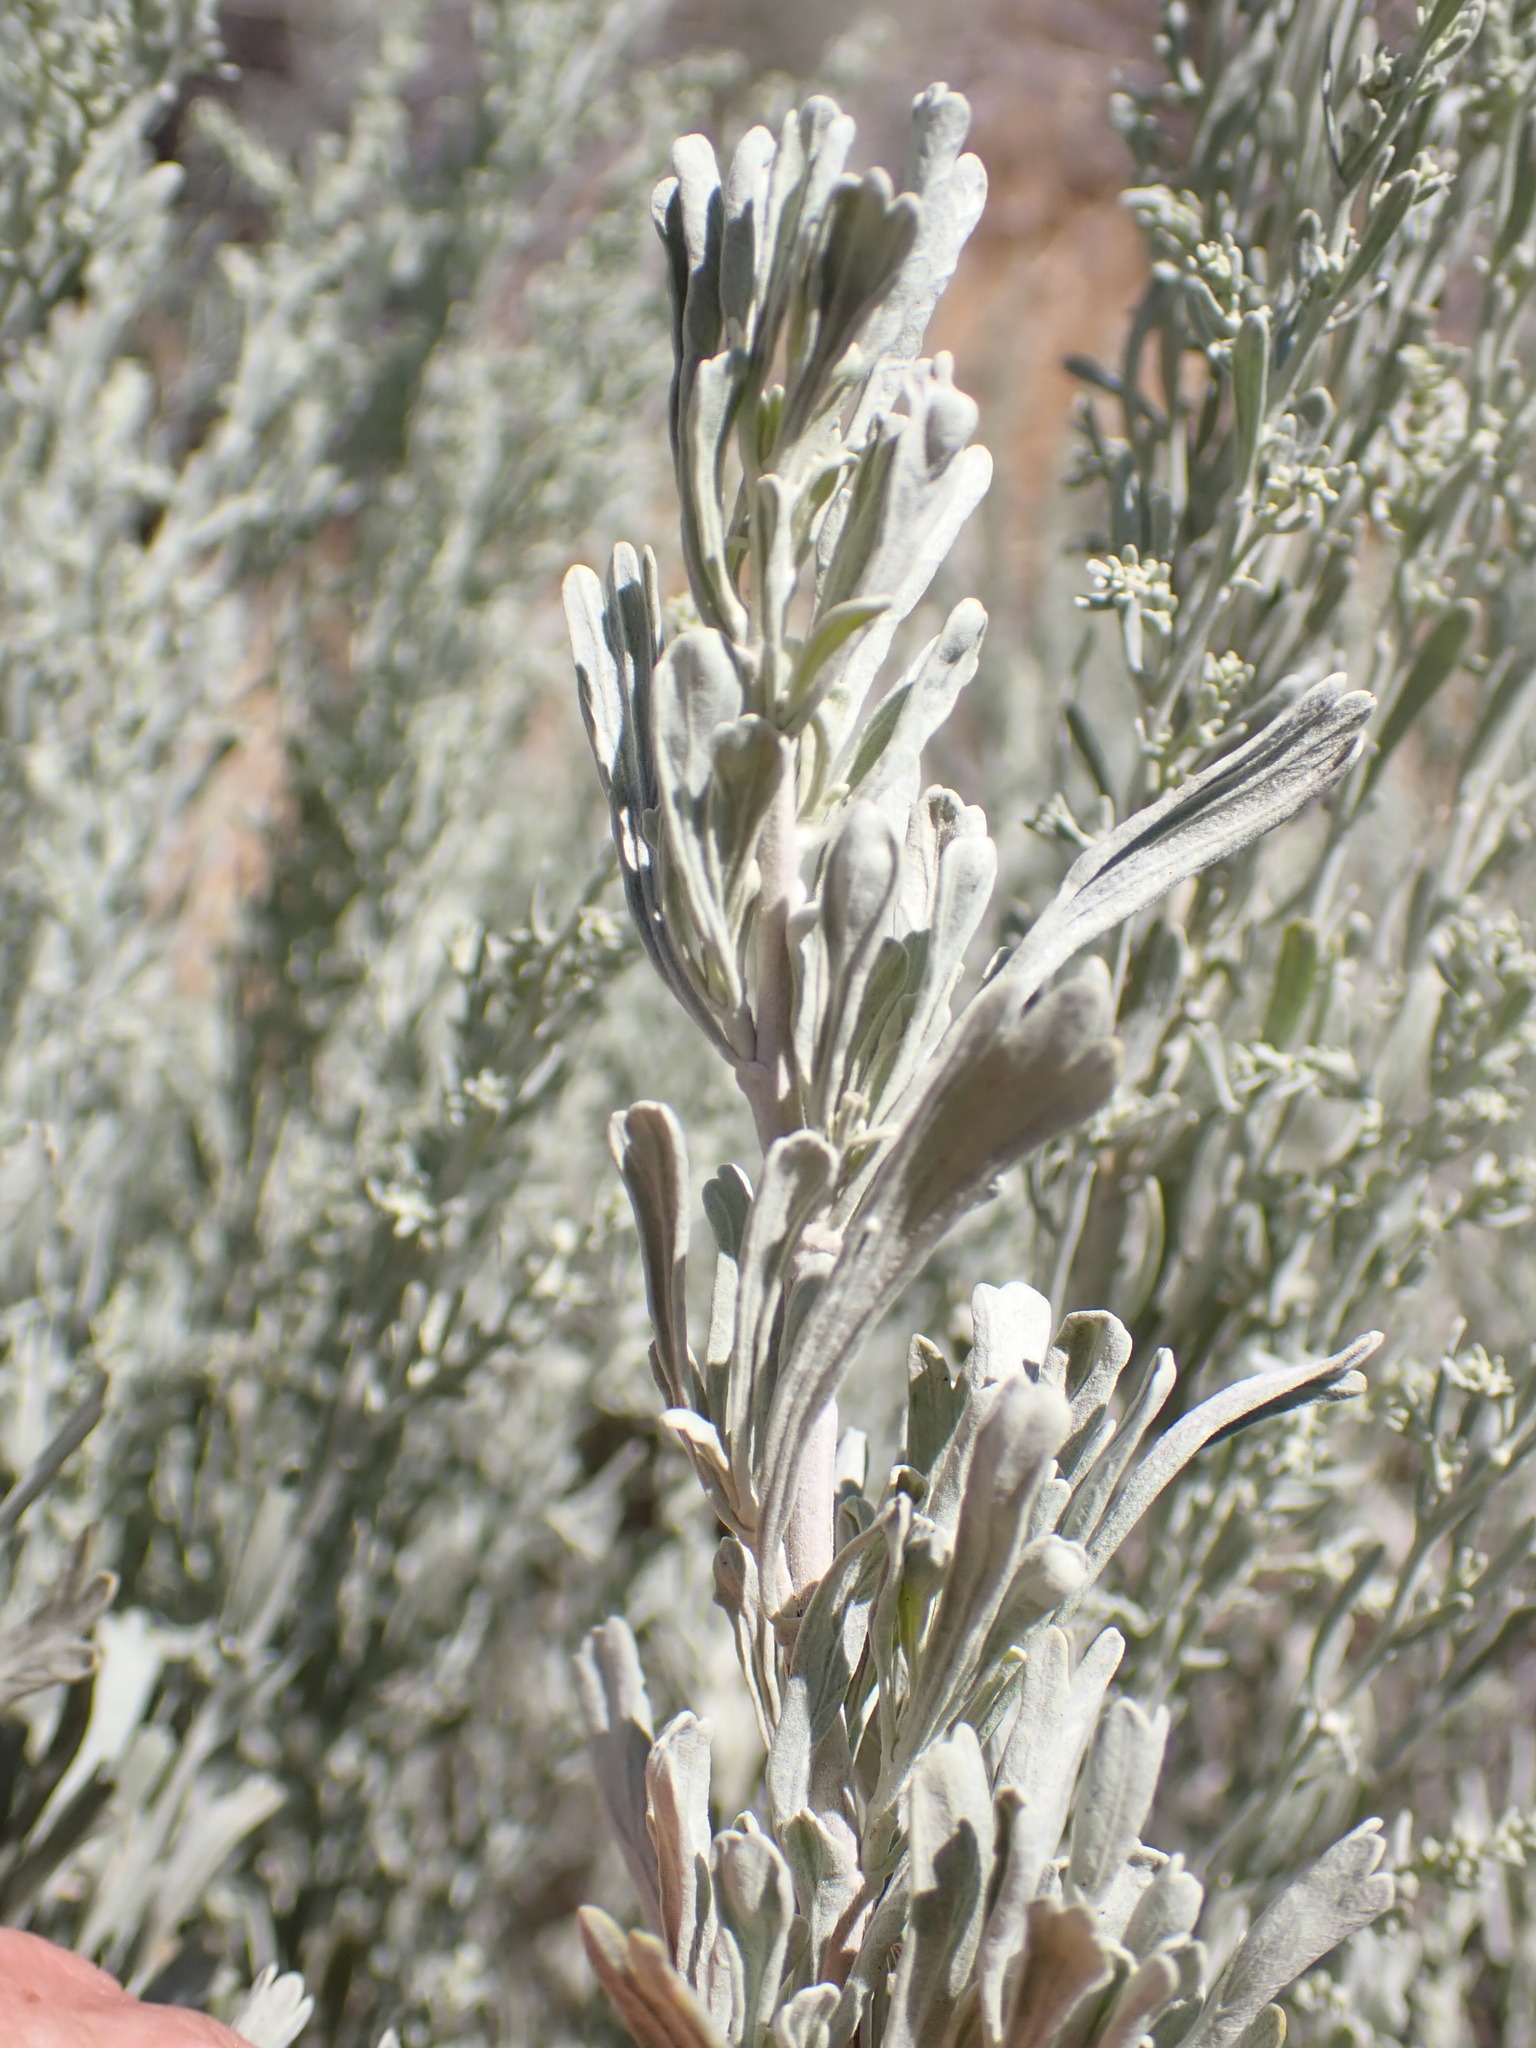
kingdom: Plantae
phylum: Tracheophyta
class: Magnoliopsida
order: Asterales
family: Asteraceae
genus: Artemisia
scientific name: Artemisia tridentata
